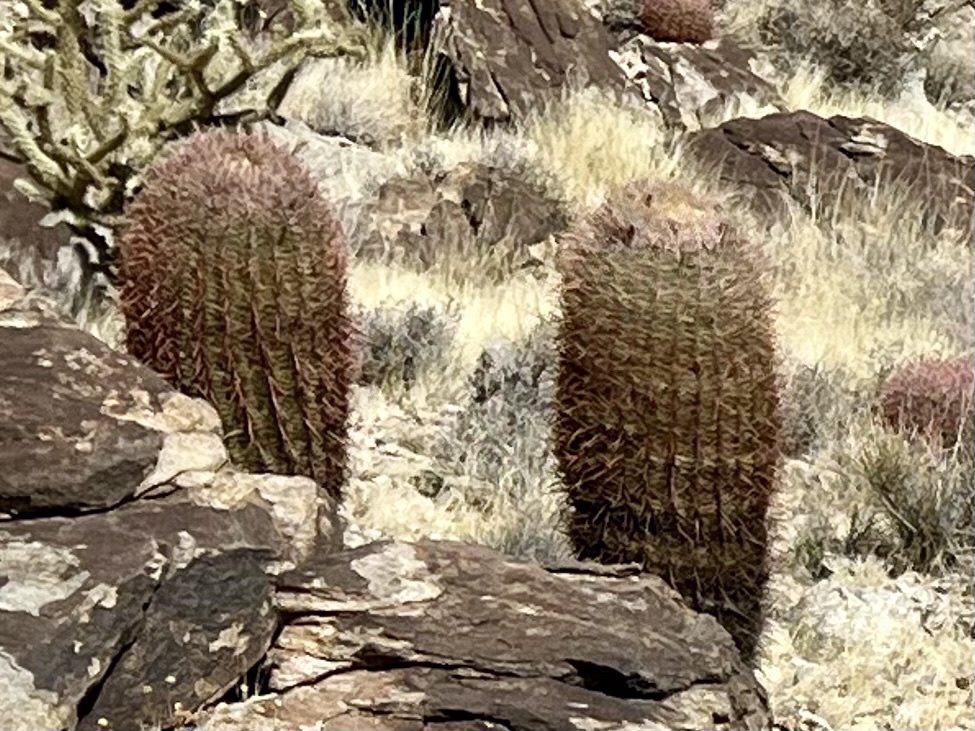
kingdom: Plantae
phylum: Tracheophyta
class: Magnoliopsida
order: Caryophyllales
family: Cactaceae
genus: Ferocactus
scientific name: Ferocactus cylindraceus
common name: California barrel cactus
